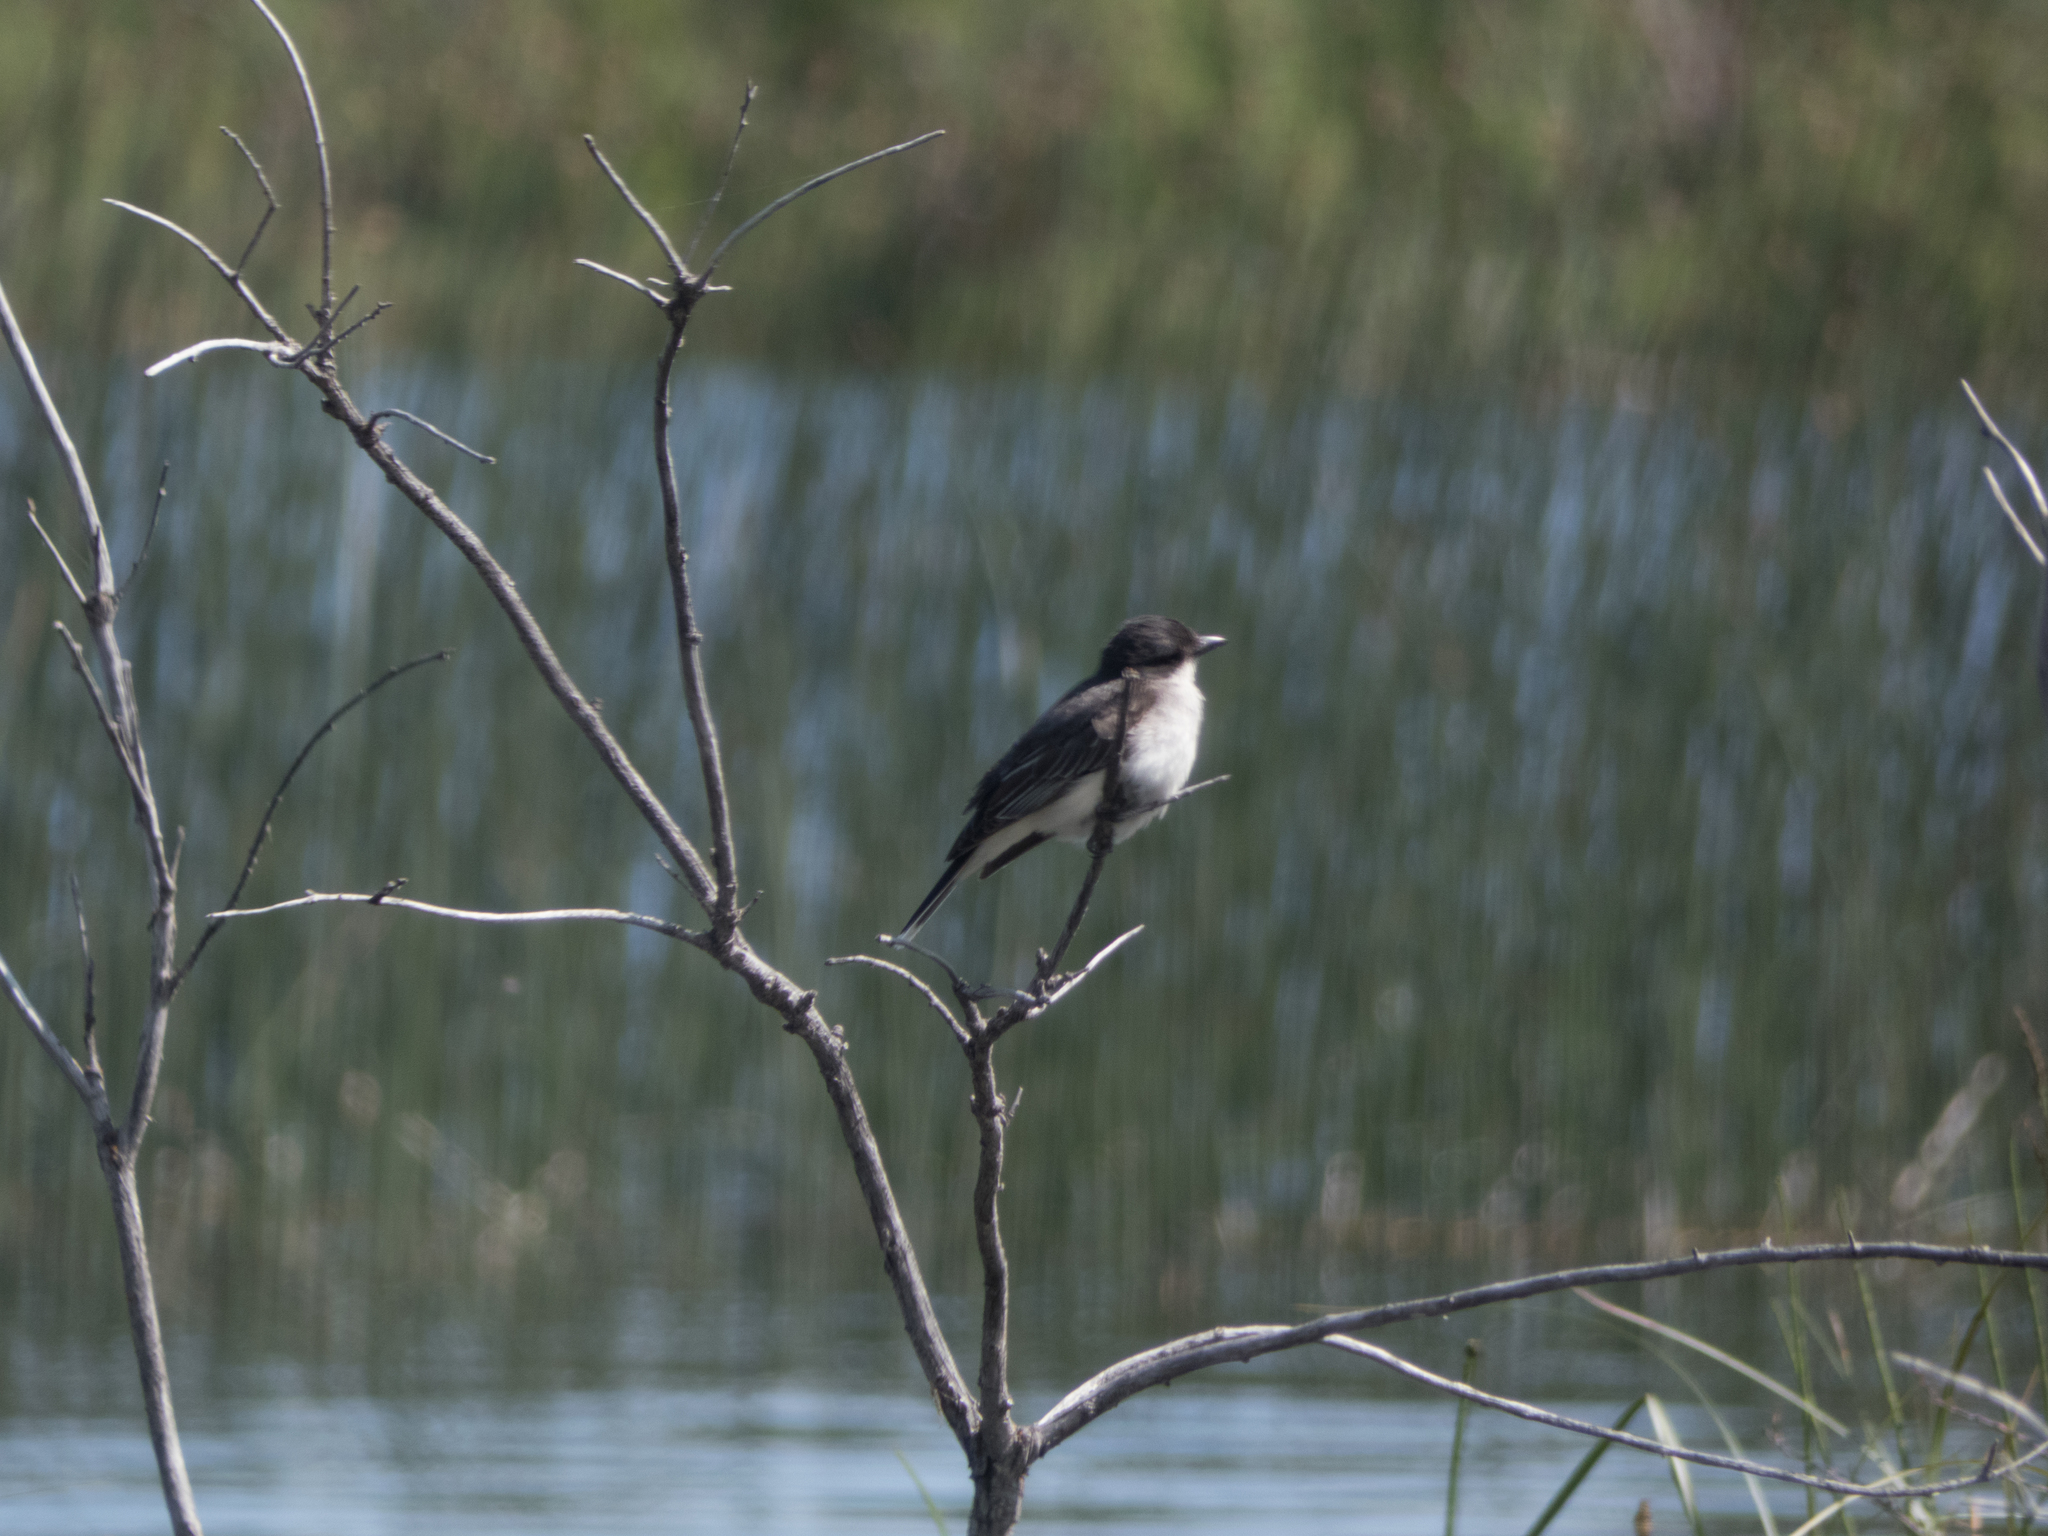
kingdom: Animalia
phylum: Chordata
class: Aves
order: Passeriformes
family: Tyrannidae
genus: Tyrannus
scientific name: Tyrannus tyrannus
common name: Eastern kingbird
